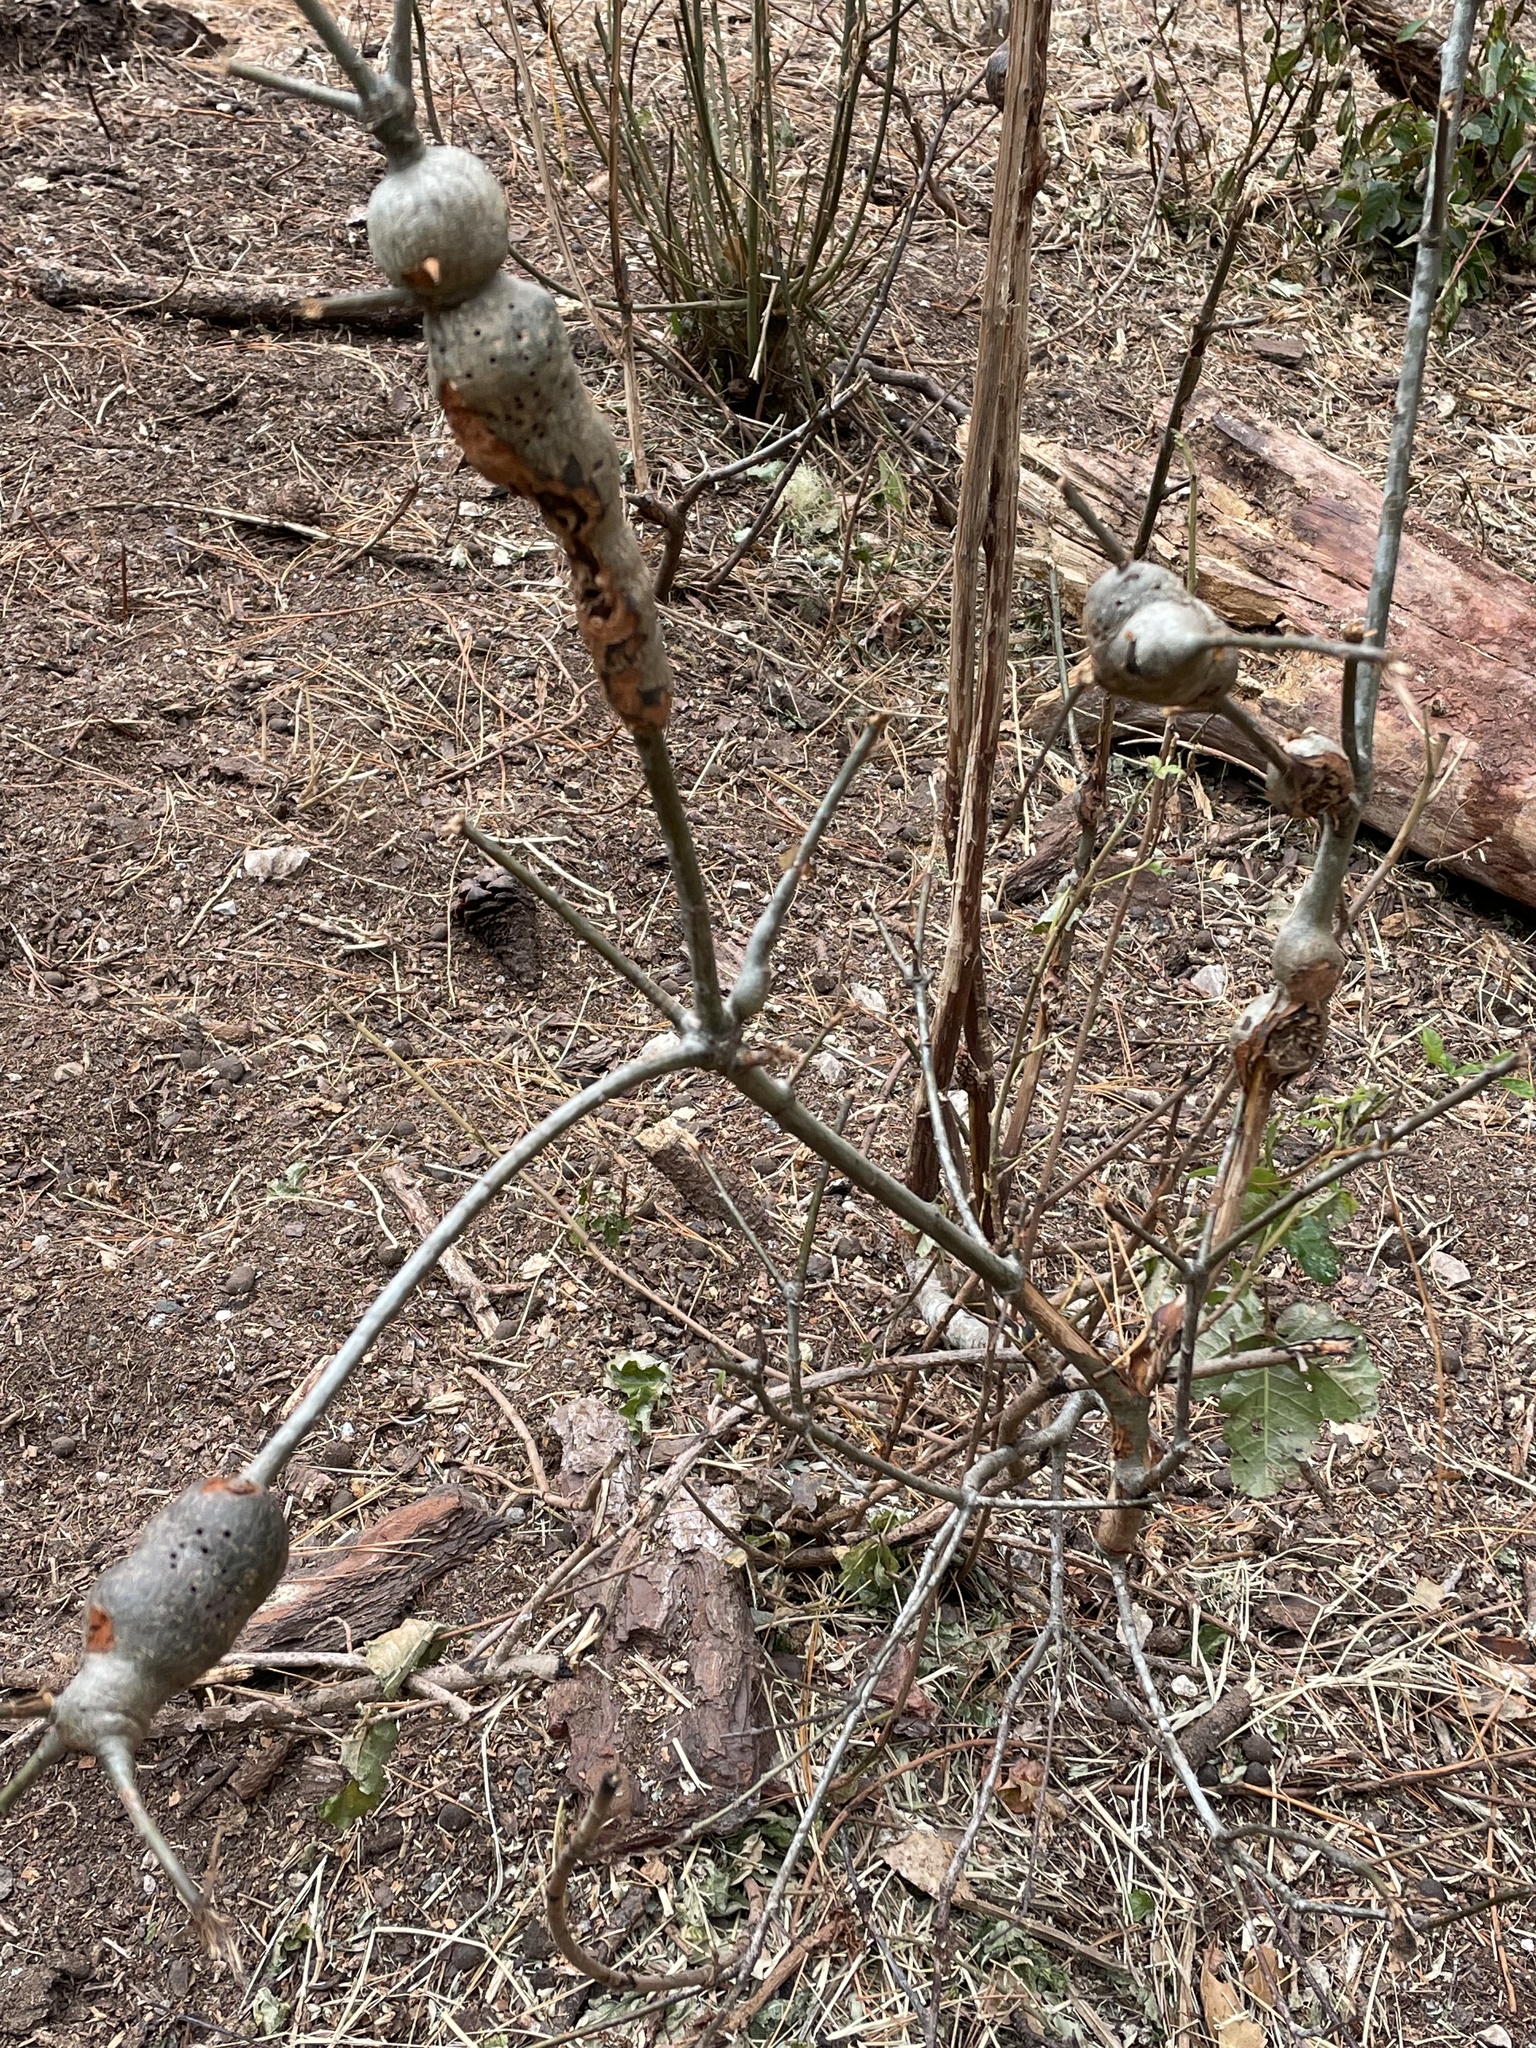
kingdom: Animalia
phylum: Arthropoda
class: Insecta
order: Hymenoptera
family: Cynipidae
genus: Callirhytis
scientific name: Callirhytis
